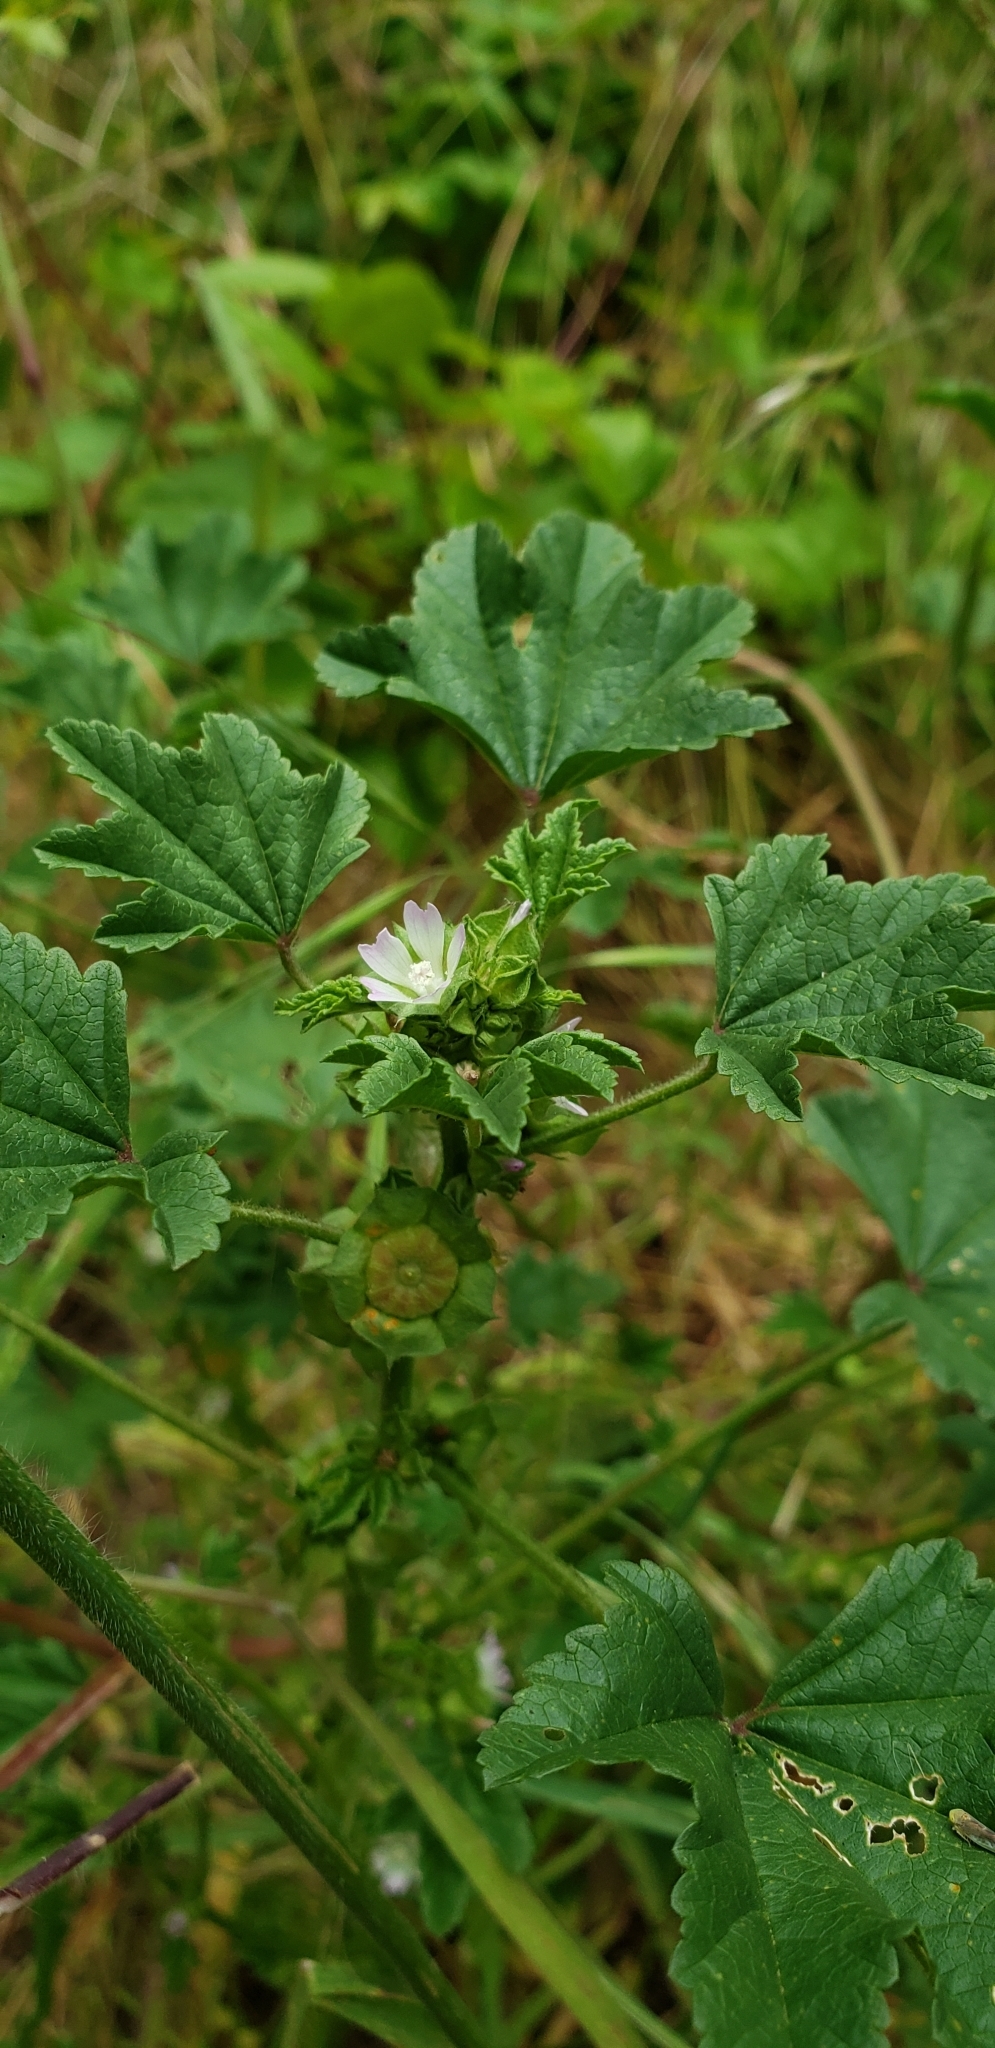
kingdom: Plantae
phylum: Tracheophyta
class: Magnoliopsida
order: Malvales
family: Malvaceae
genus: Malva
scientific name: Malva parviflora
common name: Least mallow
